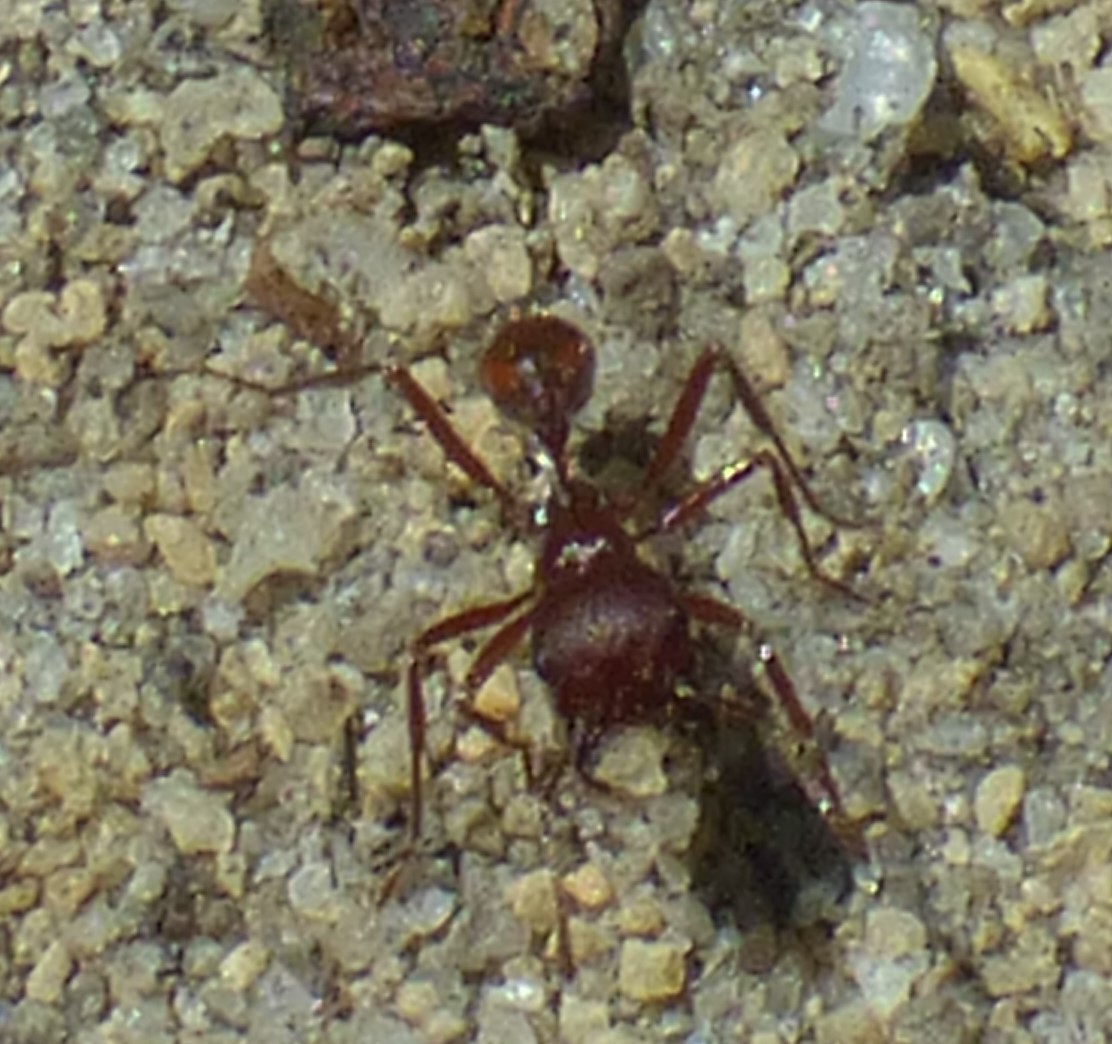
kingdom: Animalia
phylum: Arthropoda
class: Insecta
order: Hymenoptera
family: Formicidae
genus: Pogonomyrmex
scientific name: Pogonomyrmex badius
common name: Florida harvester ant
